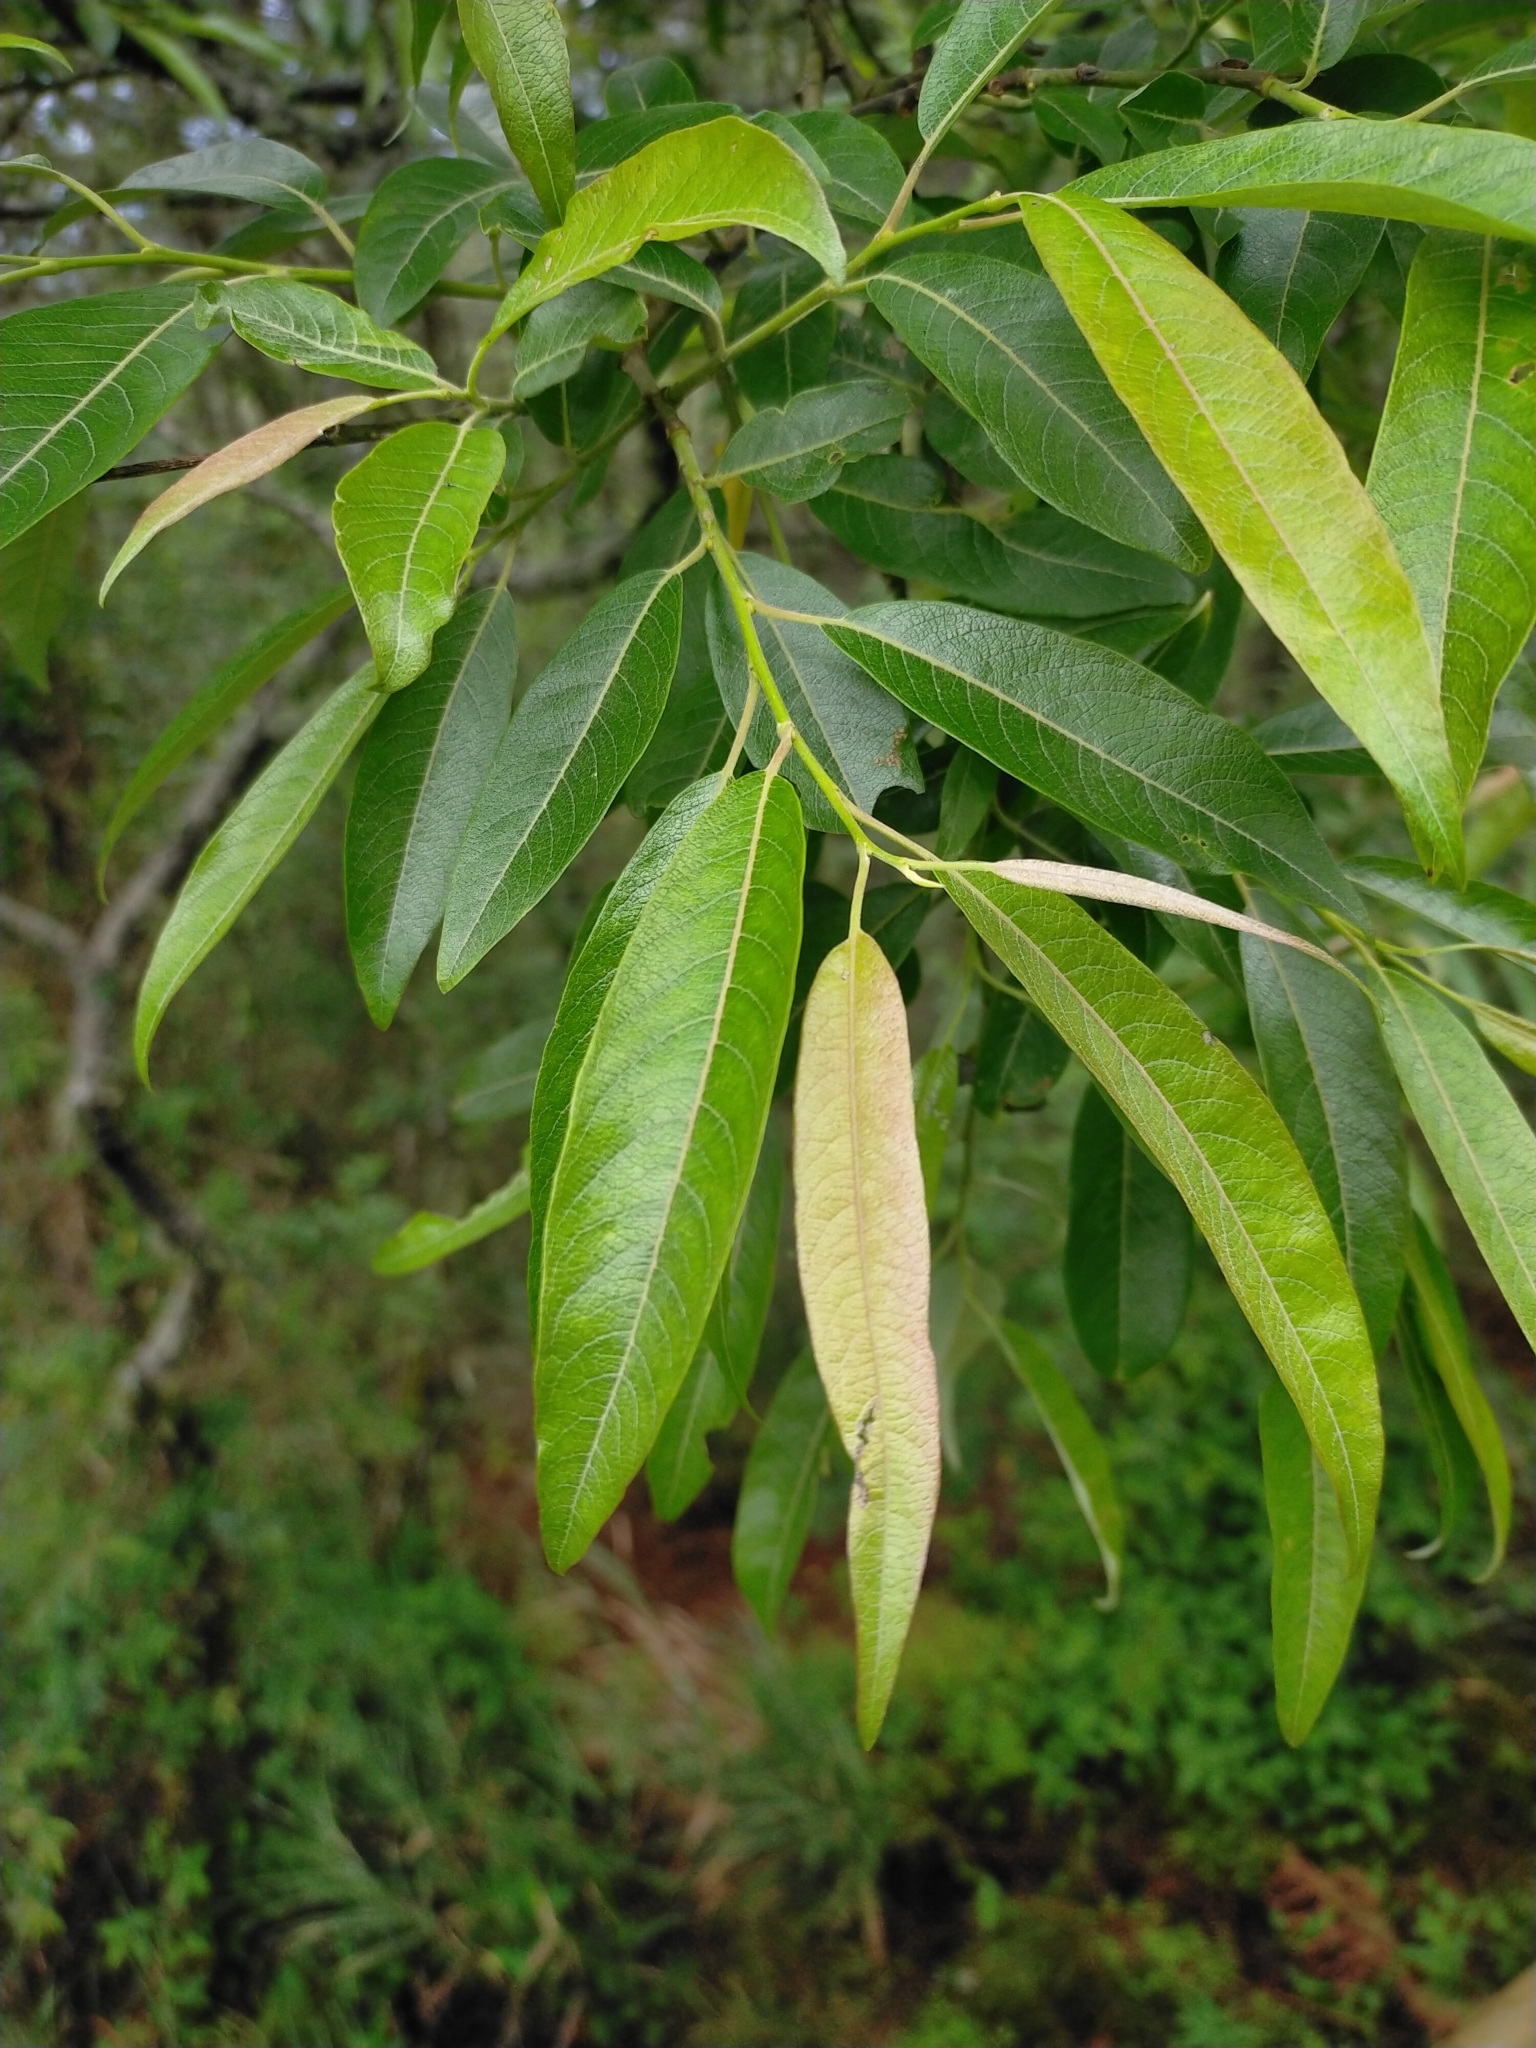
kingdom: Plantae
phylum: Tracheophyta
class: Magnoliopsida
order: Malpighiales
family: Salicaceae
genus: Salix
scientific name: Salix fulvopubescens
